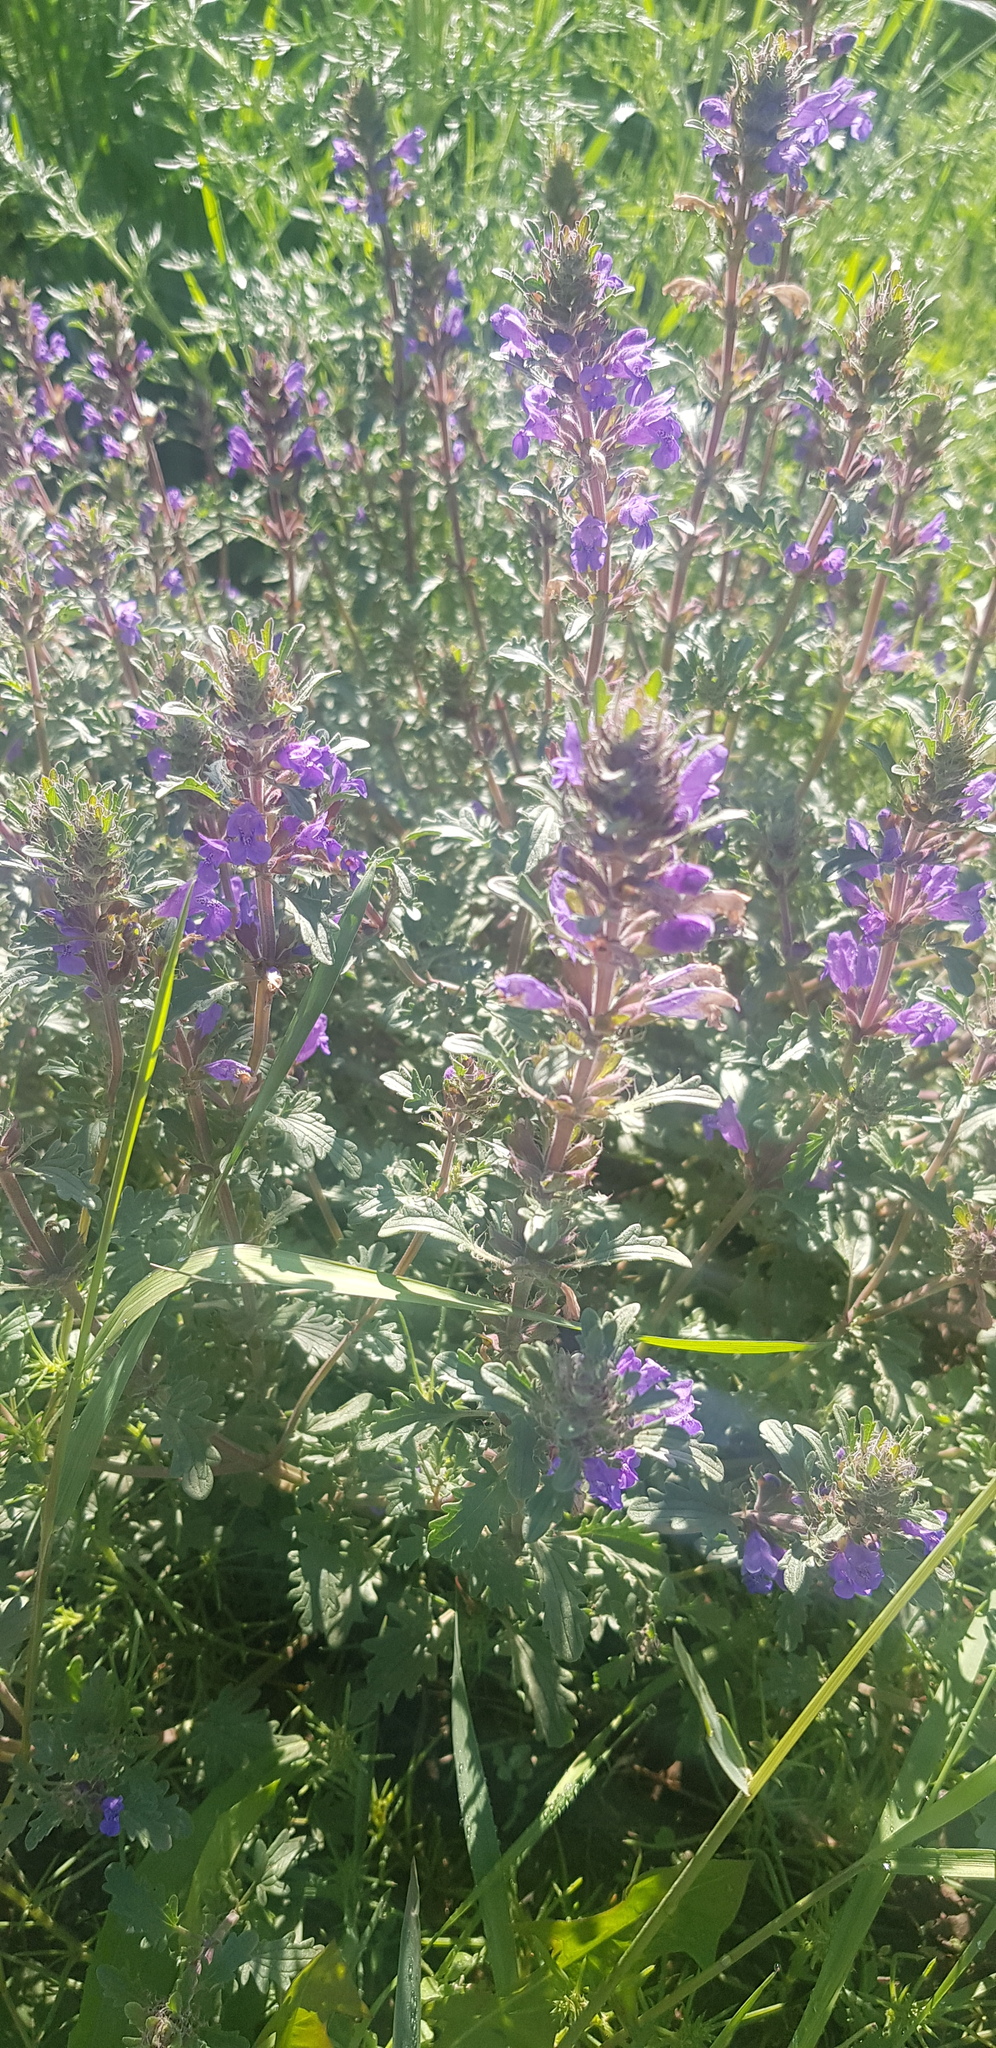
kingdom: Plantae
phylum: Tracheophyta
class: Magnoliopsida
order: Lamiales
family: Lamiaceae
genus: Dracocephalum
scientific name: Dracocephalum foetidum
